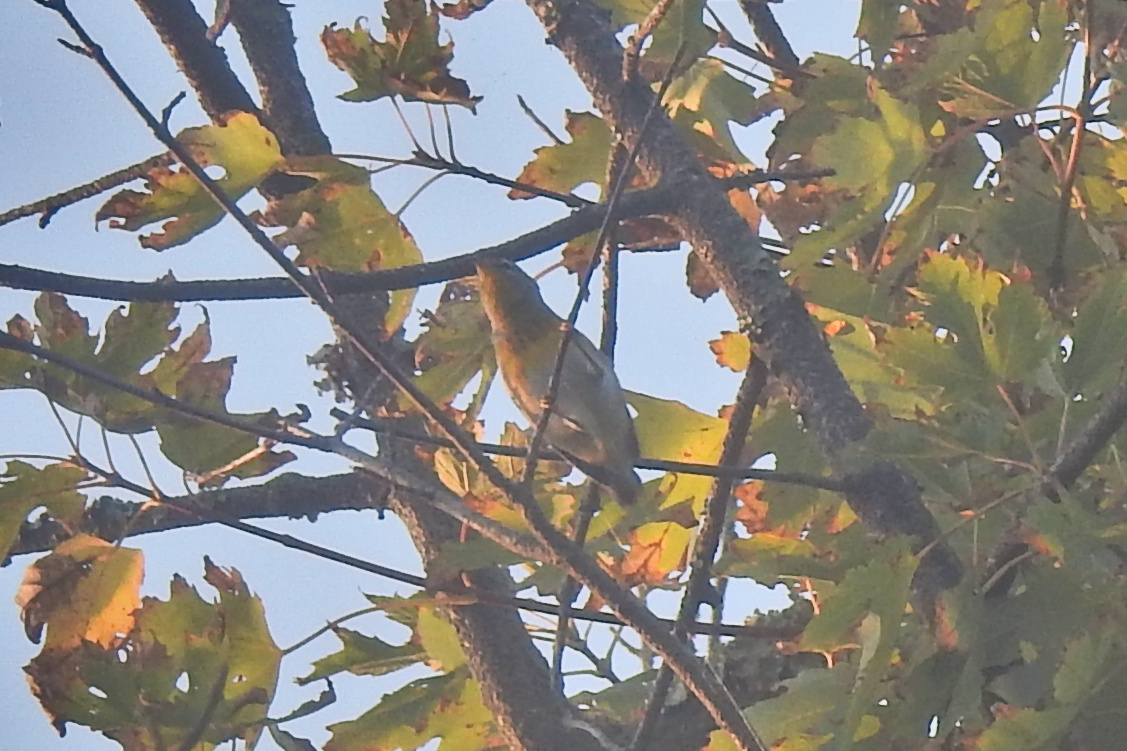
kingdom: Animalia
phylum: Chordata
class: Aves
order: Passeriformes
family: Parulidae
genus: Setophaga
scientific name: Setophaga americana
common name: Northern parula
